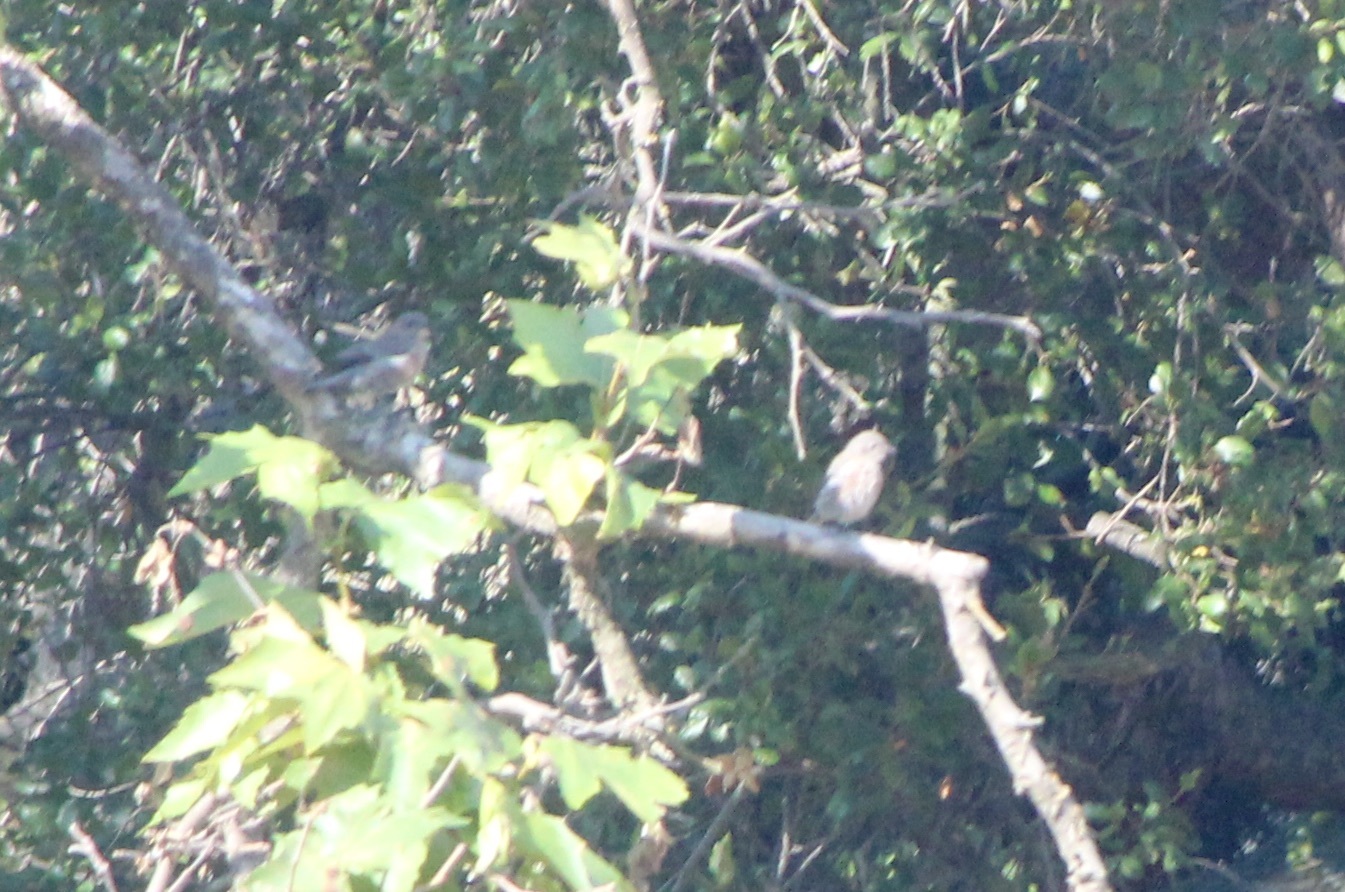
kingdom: Animalia
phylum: Chordata
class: Aves
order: Passeriformes
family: Turdidae
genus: Sialia
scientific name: Sialia mexicana
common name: Western bluebird
